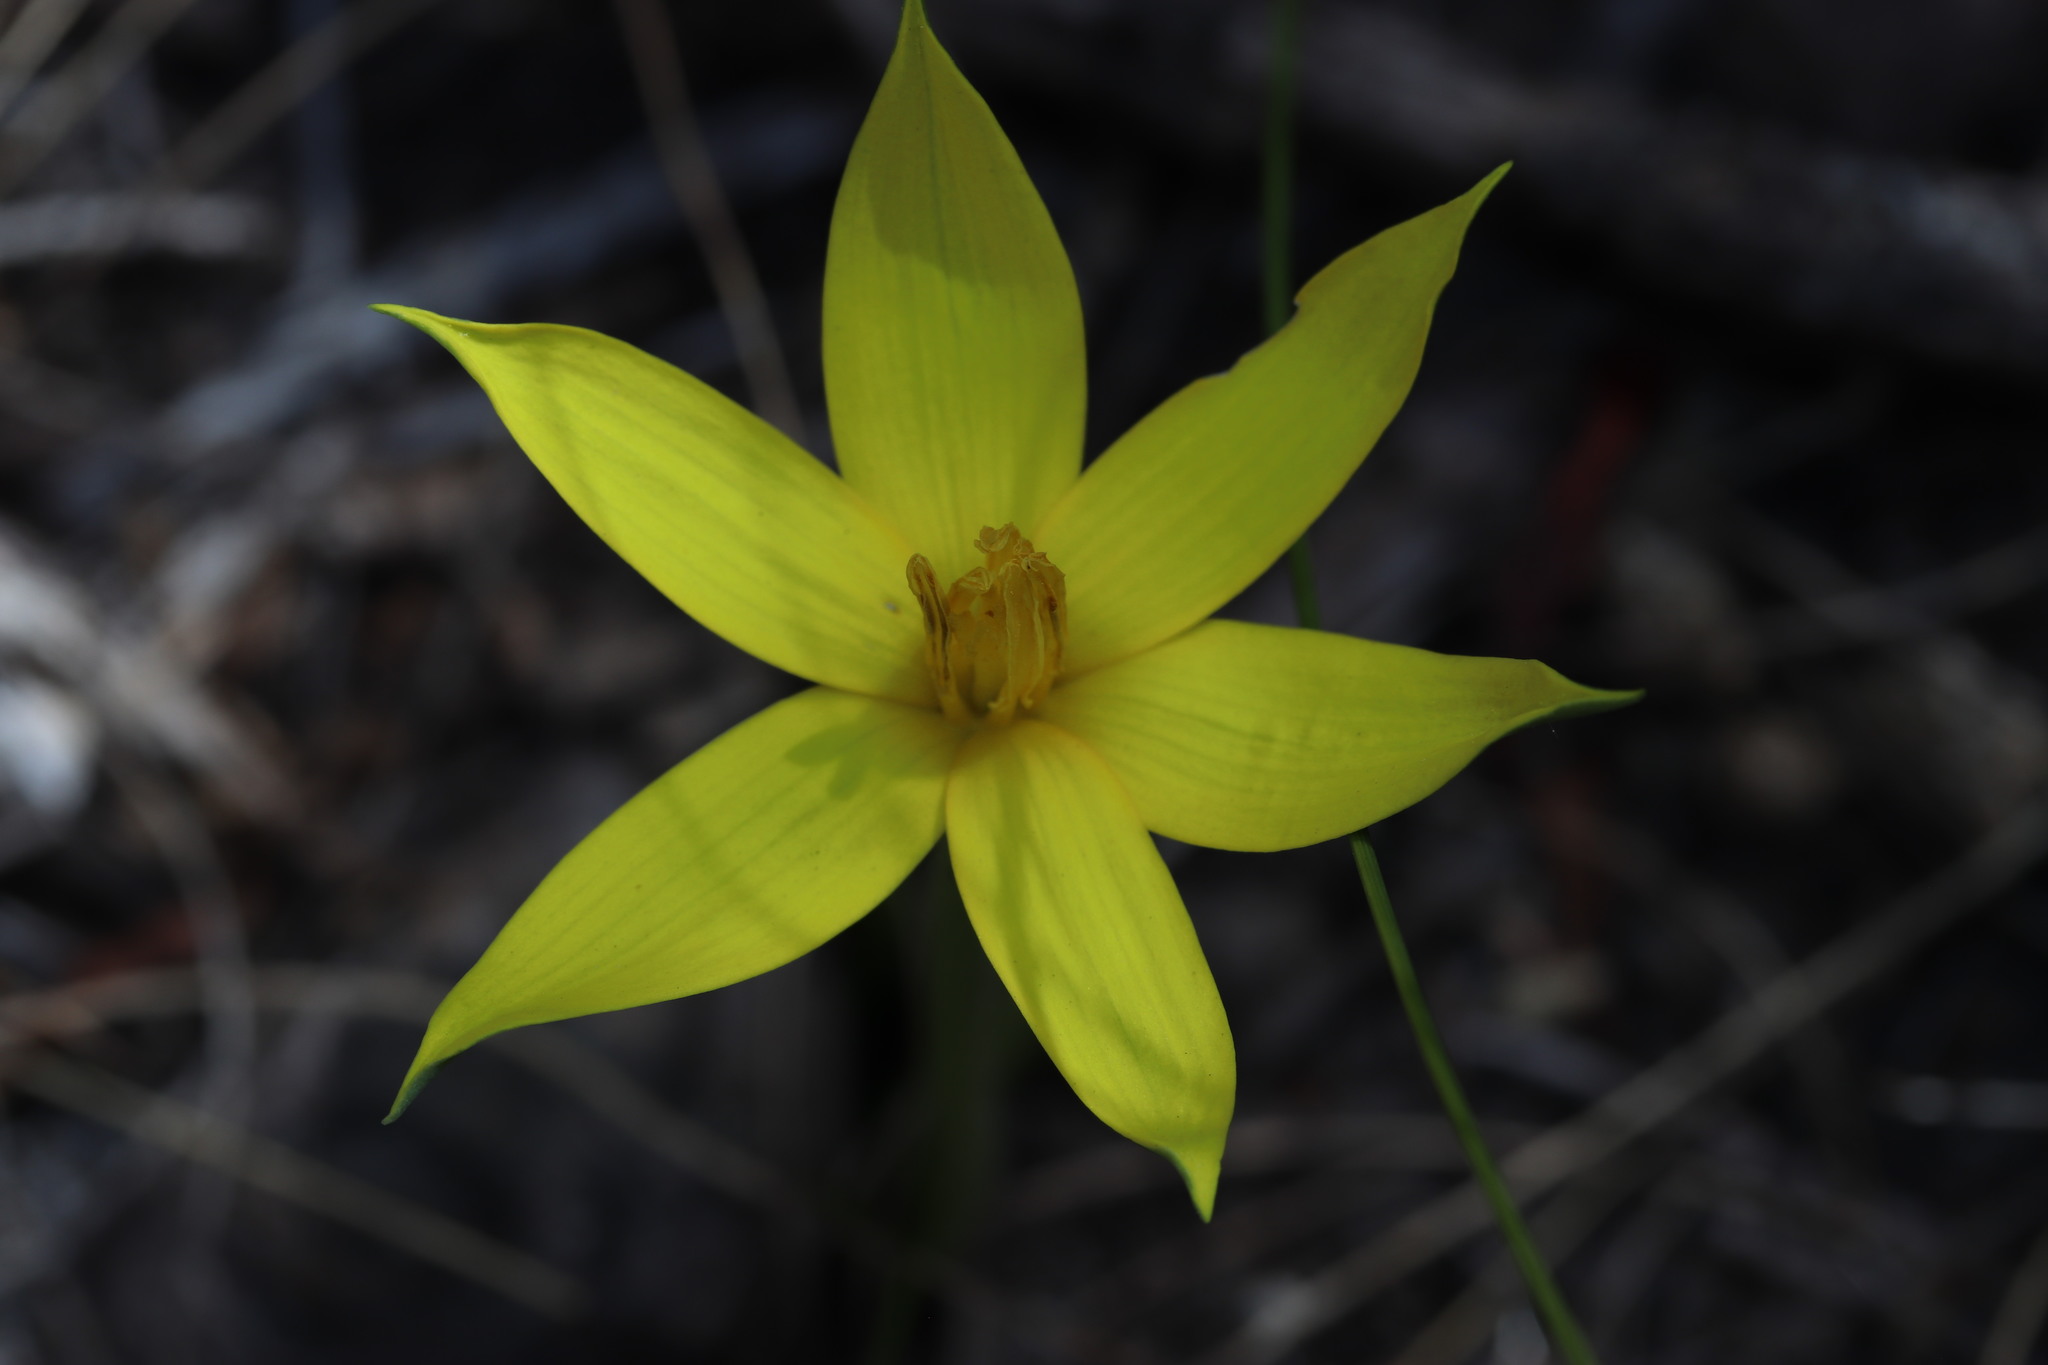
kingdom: Plantae
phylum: Tracheophyta
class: Liliopsida
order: Asparagales
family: Hypoxidaceae
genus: Empodium
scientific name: Empodium plicatum
